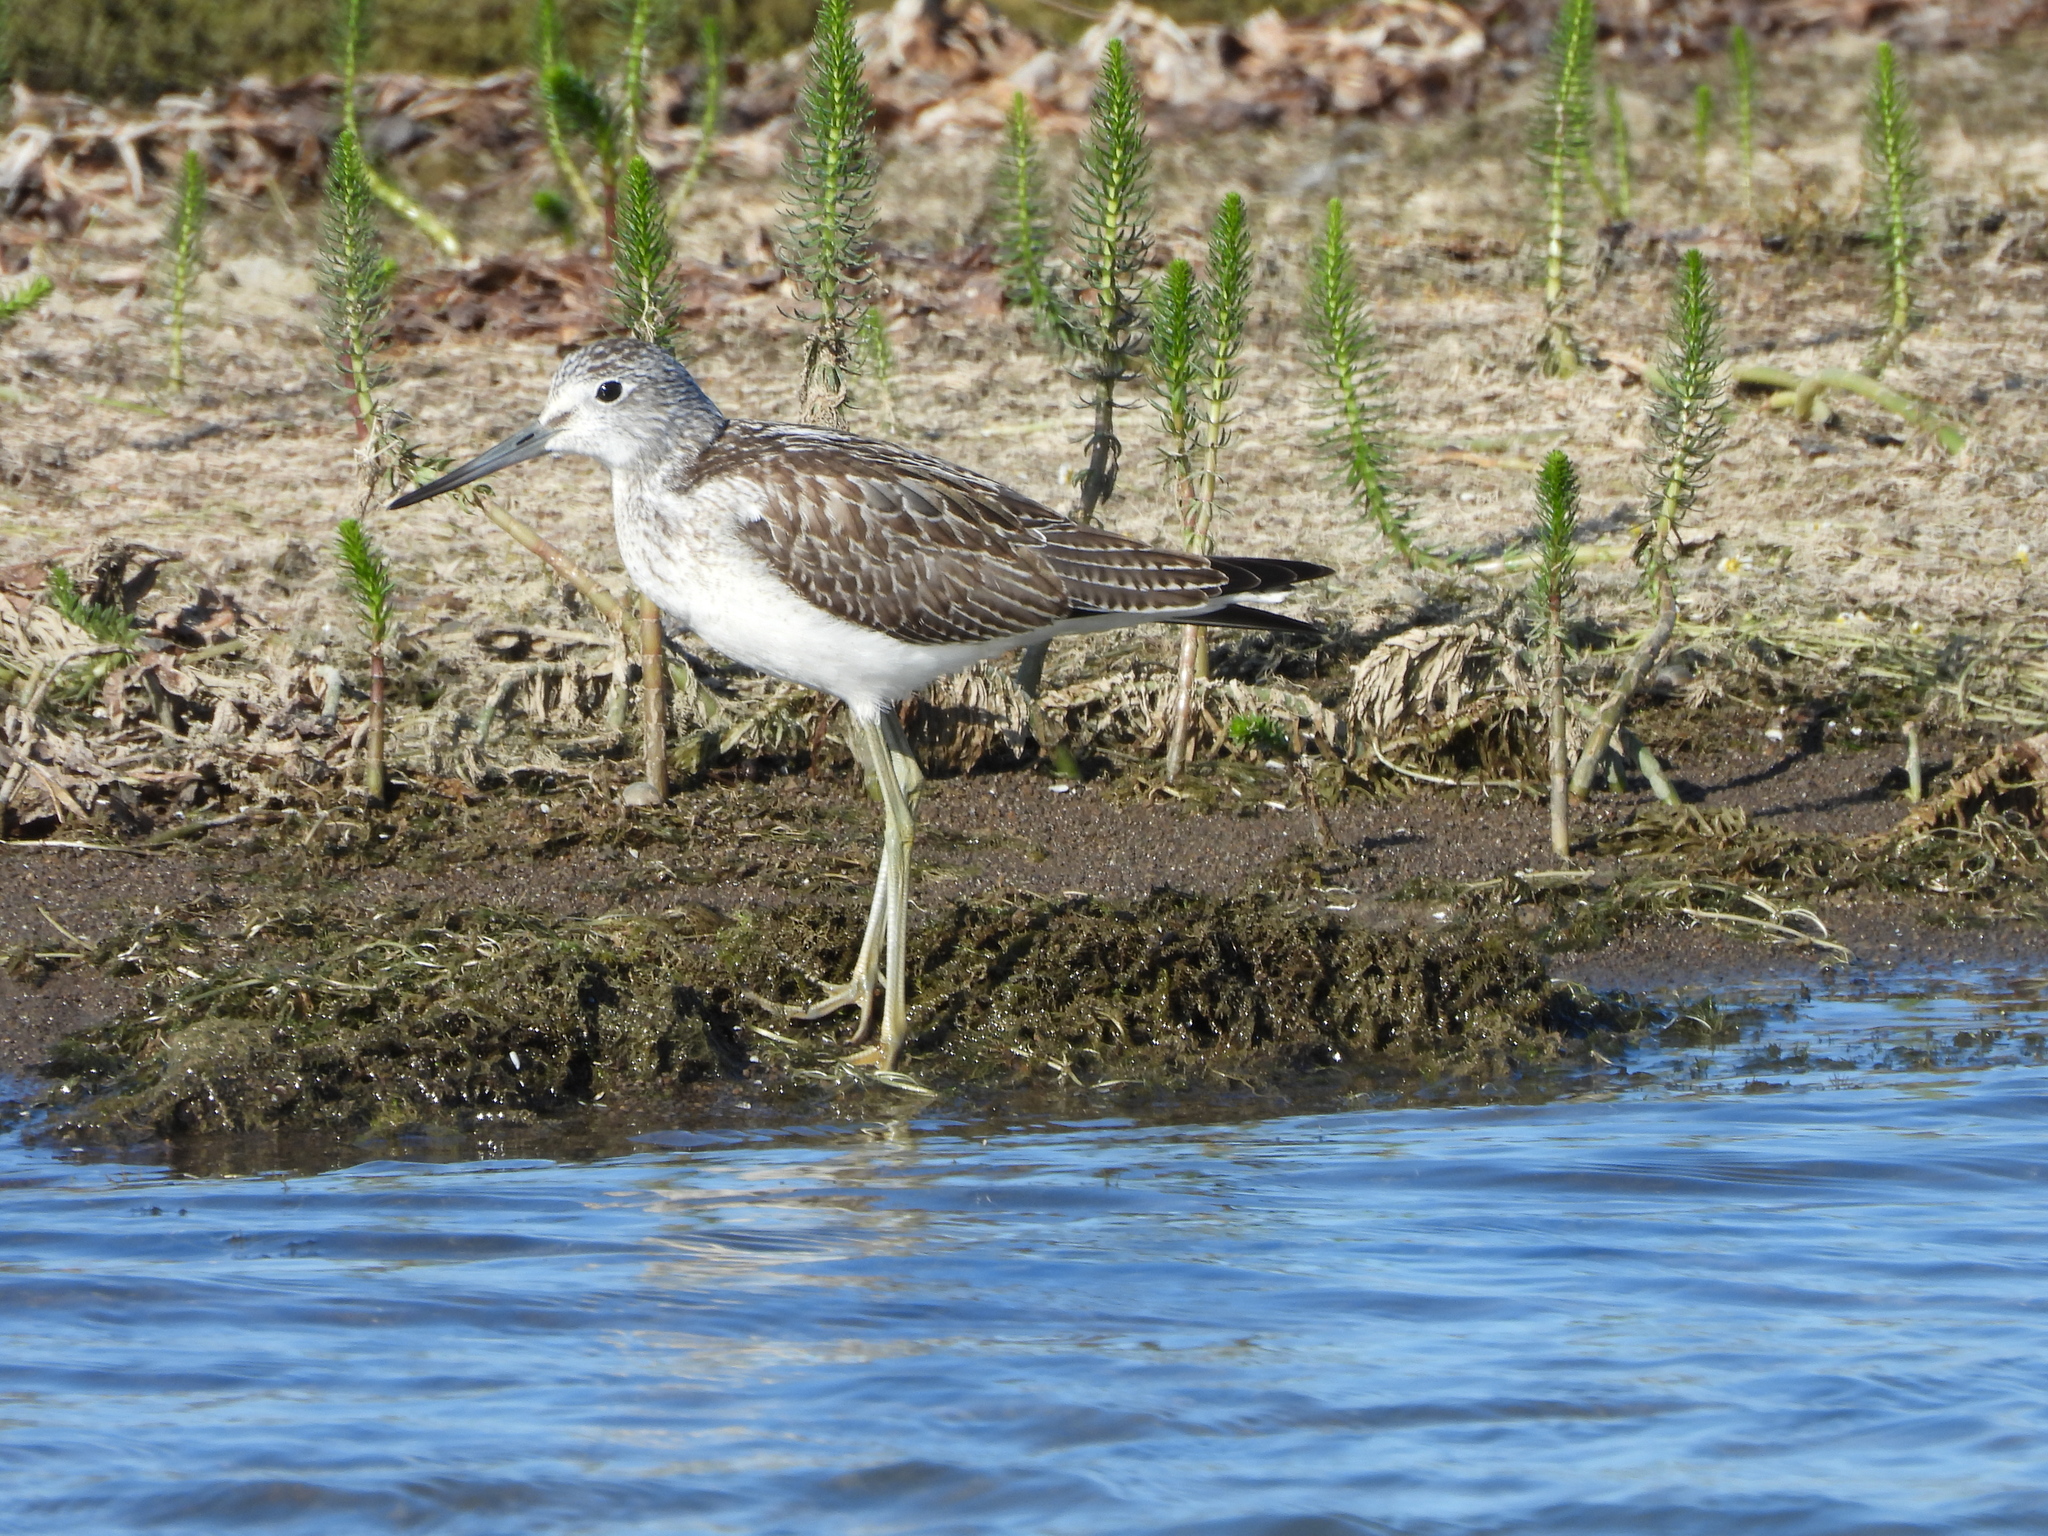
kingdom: Animalia
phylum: Chordata
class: Aves
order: Charadriiformes
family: Scolopacidae
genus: Tringa
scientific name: Tringa nebularia
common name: Common greenshank
